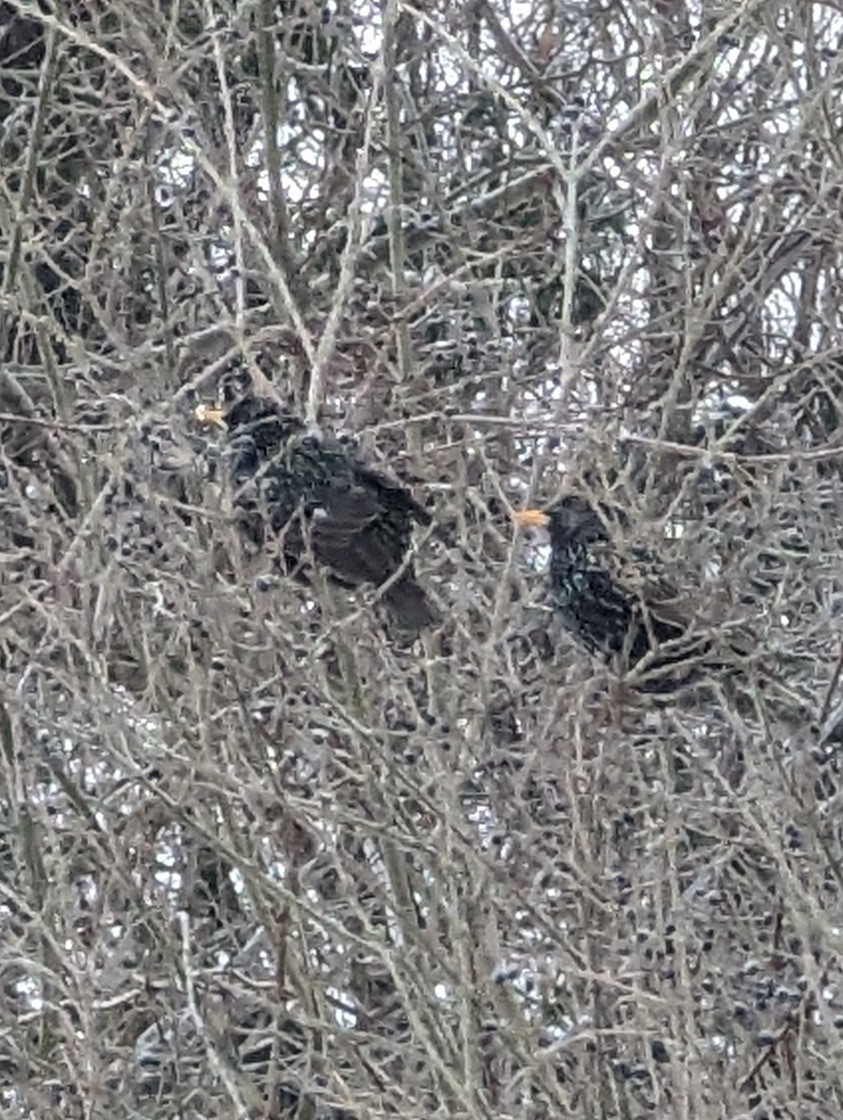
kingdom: Animalia
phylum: Chordata
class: Aves
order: Passeriformes
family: Sturnidae
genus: Sturnus
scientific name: Sturnus vulgaris
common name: Common starling
